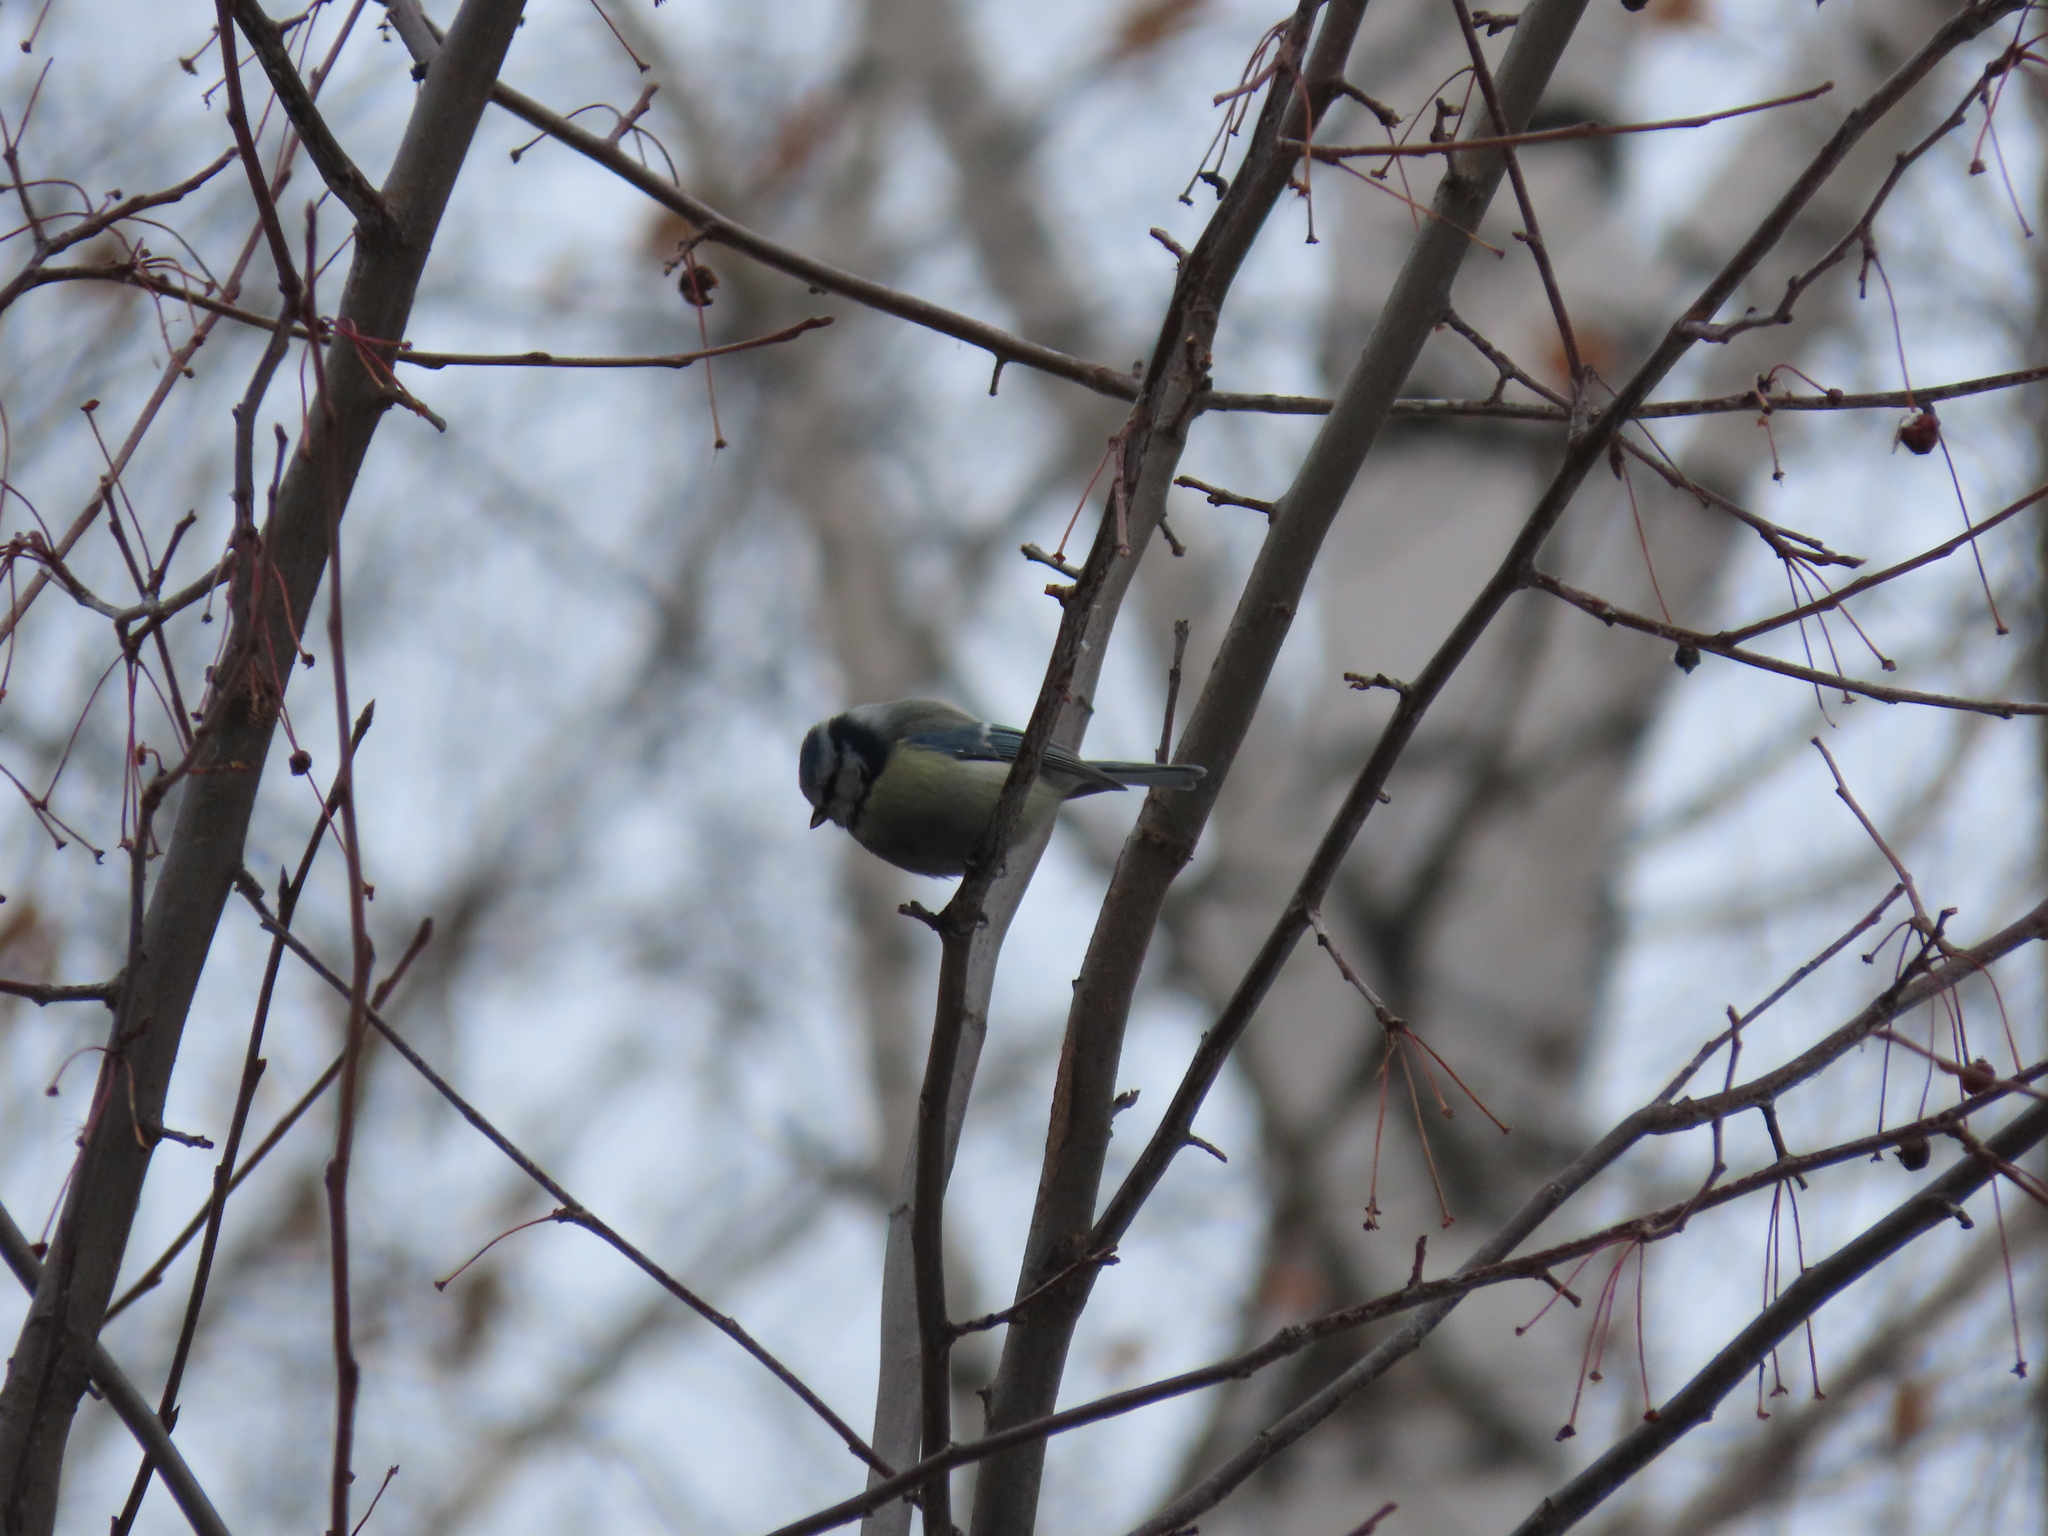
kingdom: Animalia
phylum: Chordata
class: Aves
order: Passeriformes
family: Paridae
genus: Cyanistes
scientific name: Cyanistes caeruleus
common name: Eurasian blue tit
